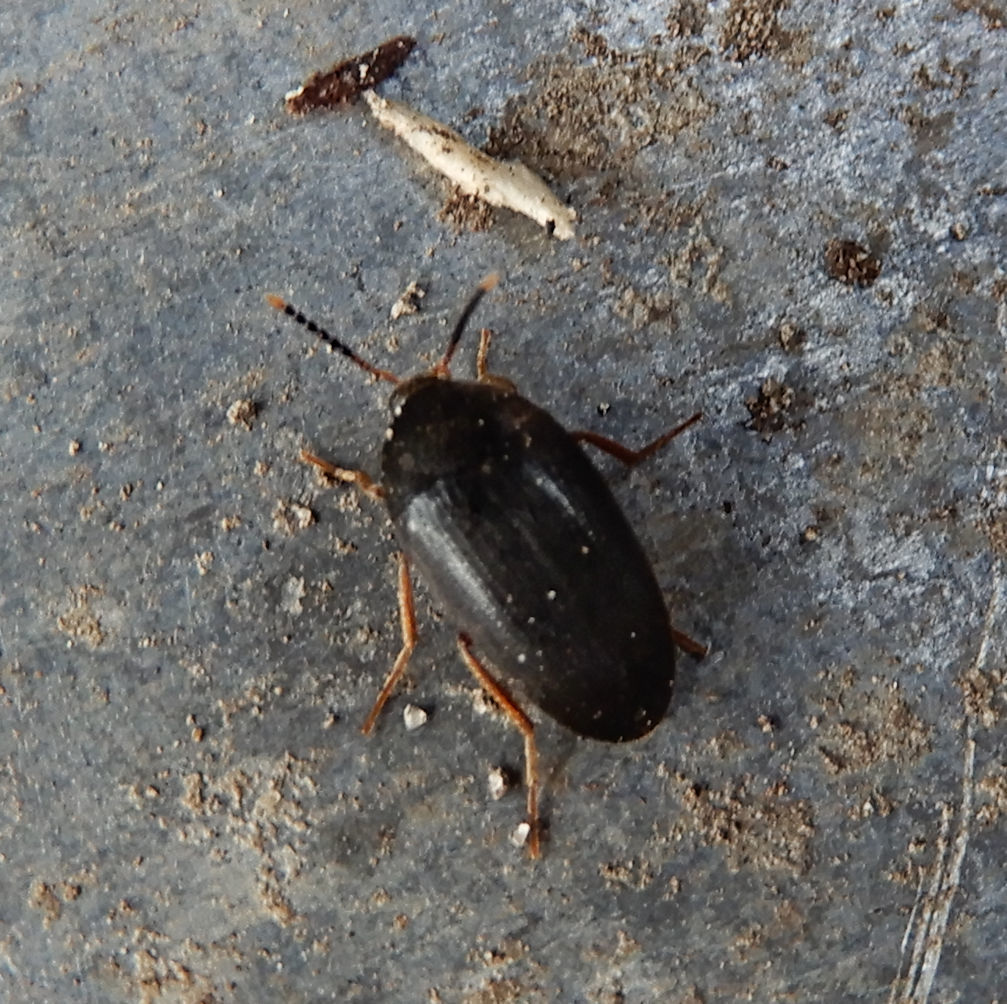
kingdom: Animalia
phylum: Arthropoda
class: Insecta
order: Coleoptera
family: Tetratomidae
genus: Eustrophopsis
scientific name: Eustrophopsis bicolor
